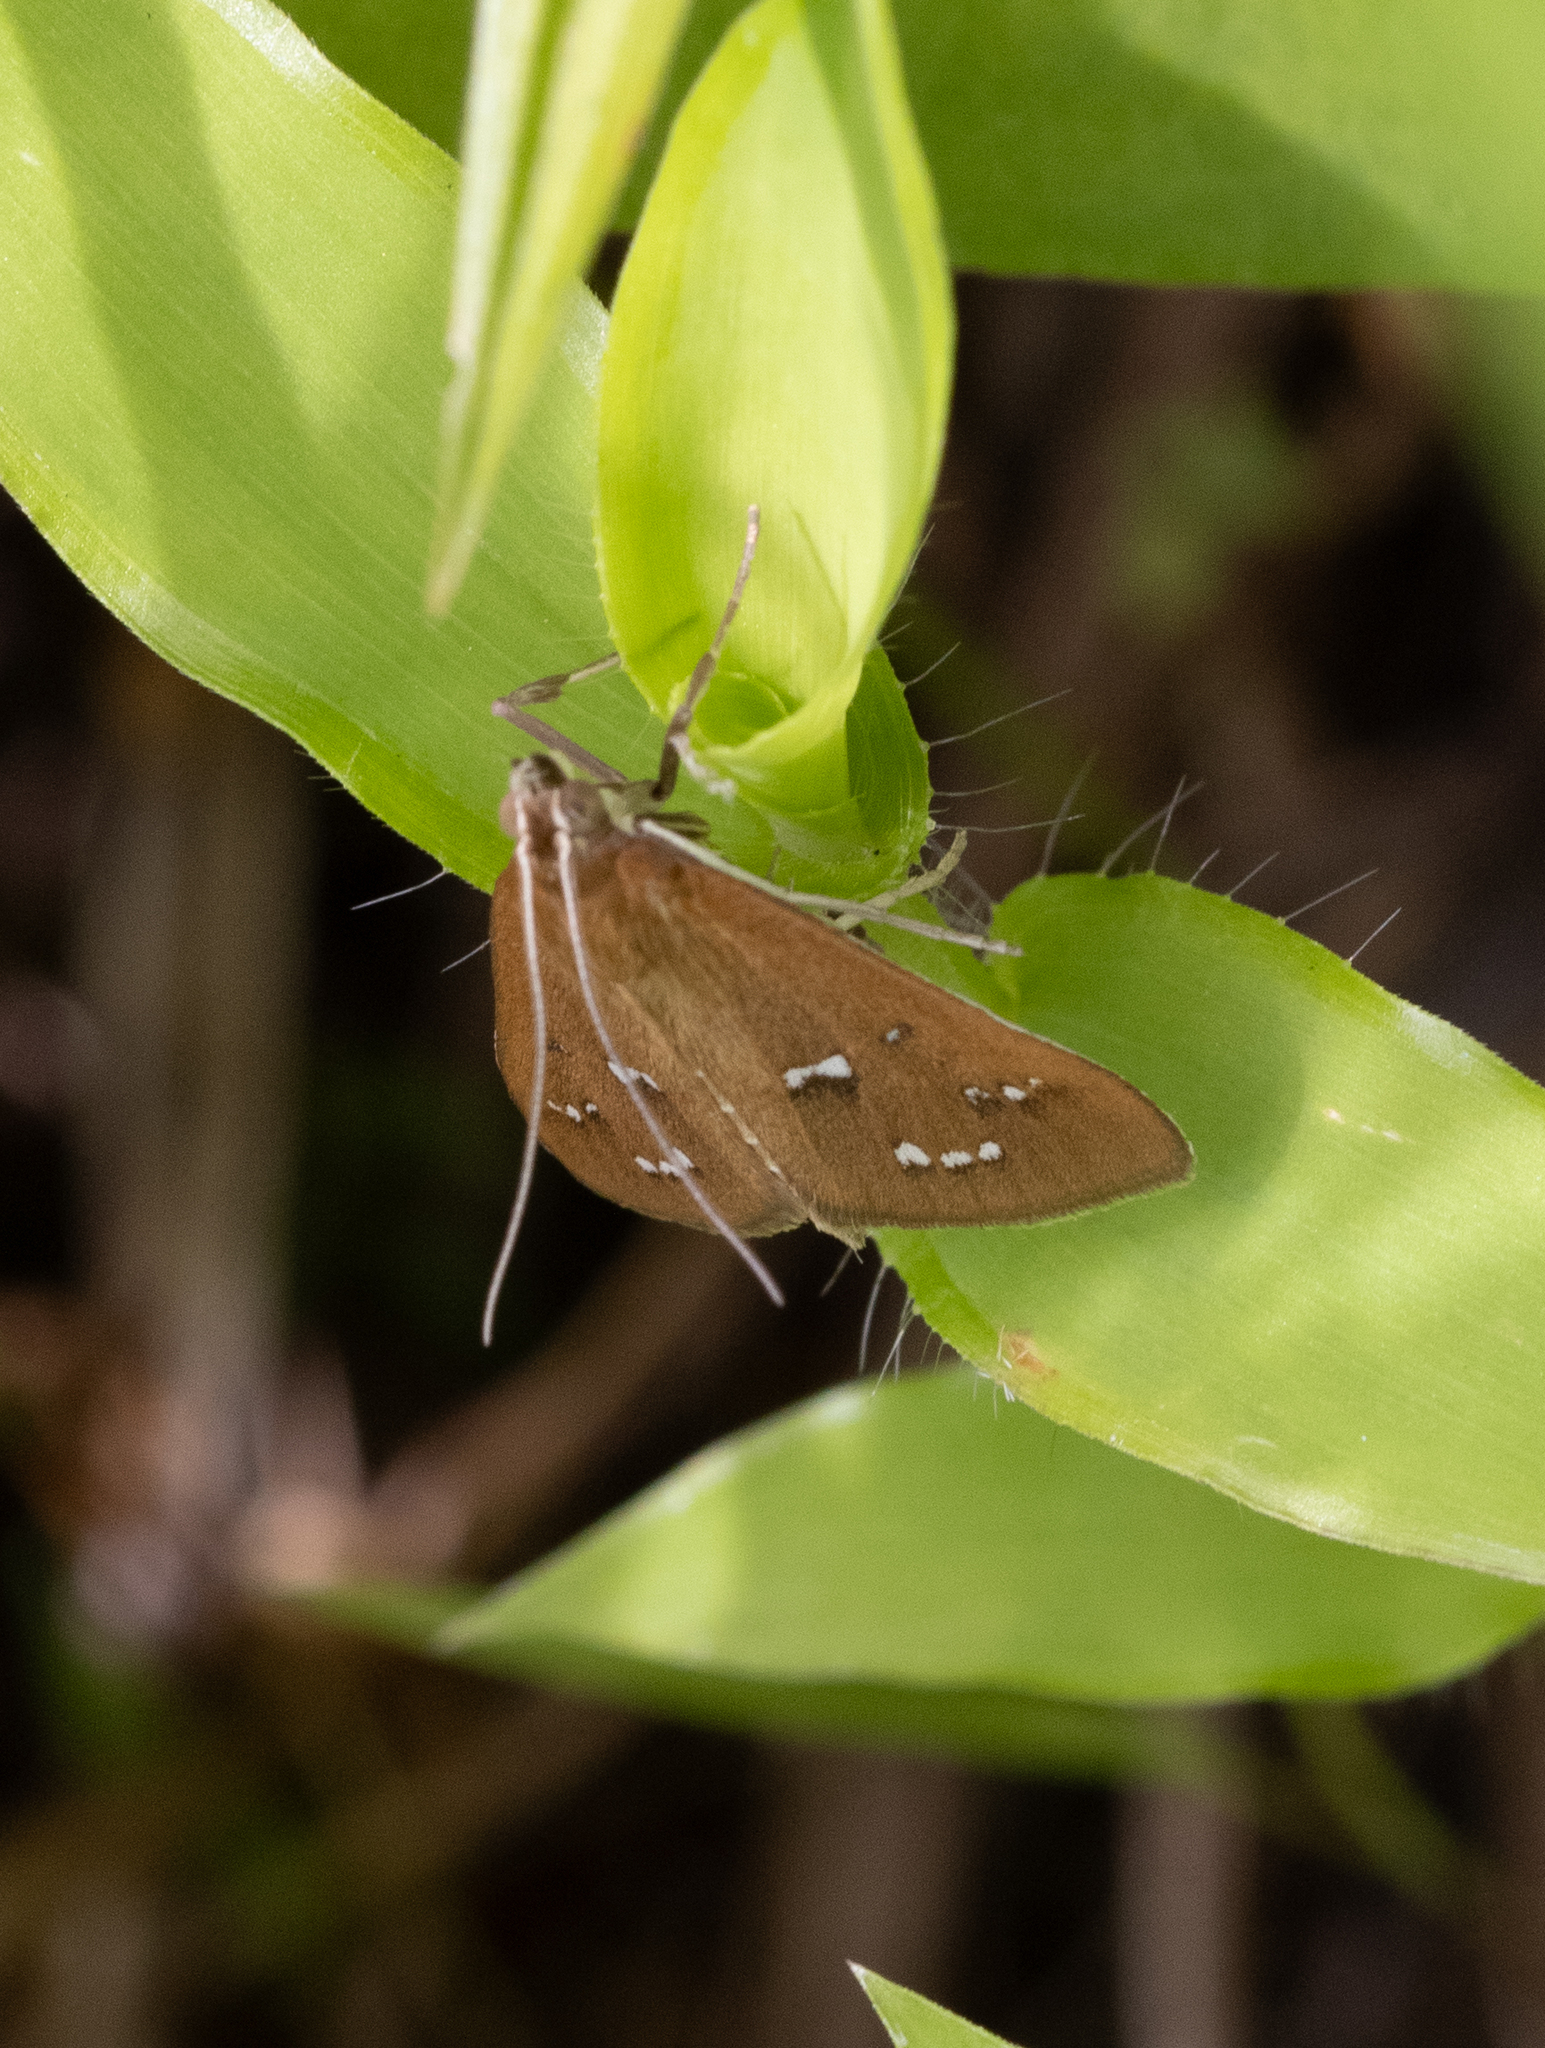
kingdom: Animalia
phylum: Arthropoda
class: Insecta
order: Lepidoptera
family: Crambidae
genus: Diastictis
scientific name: Diastictis ventralis
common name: White-spotted brown
